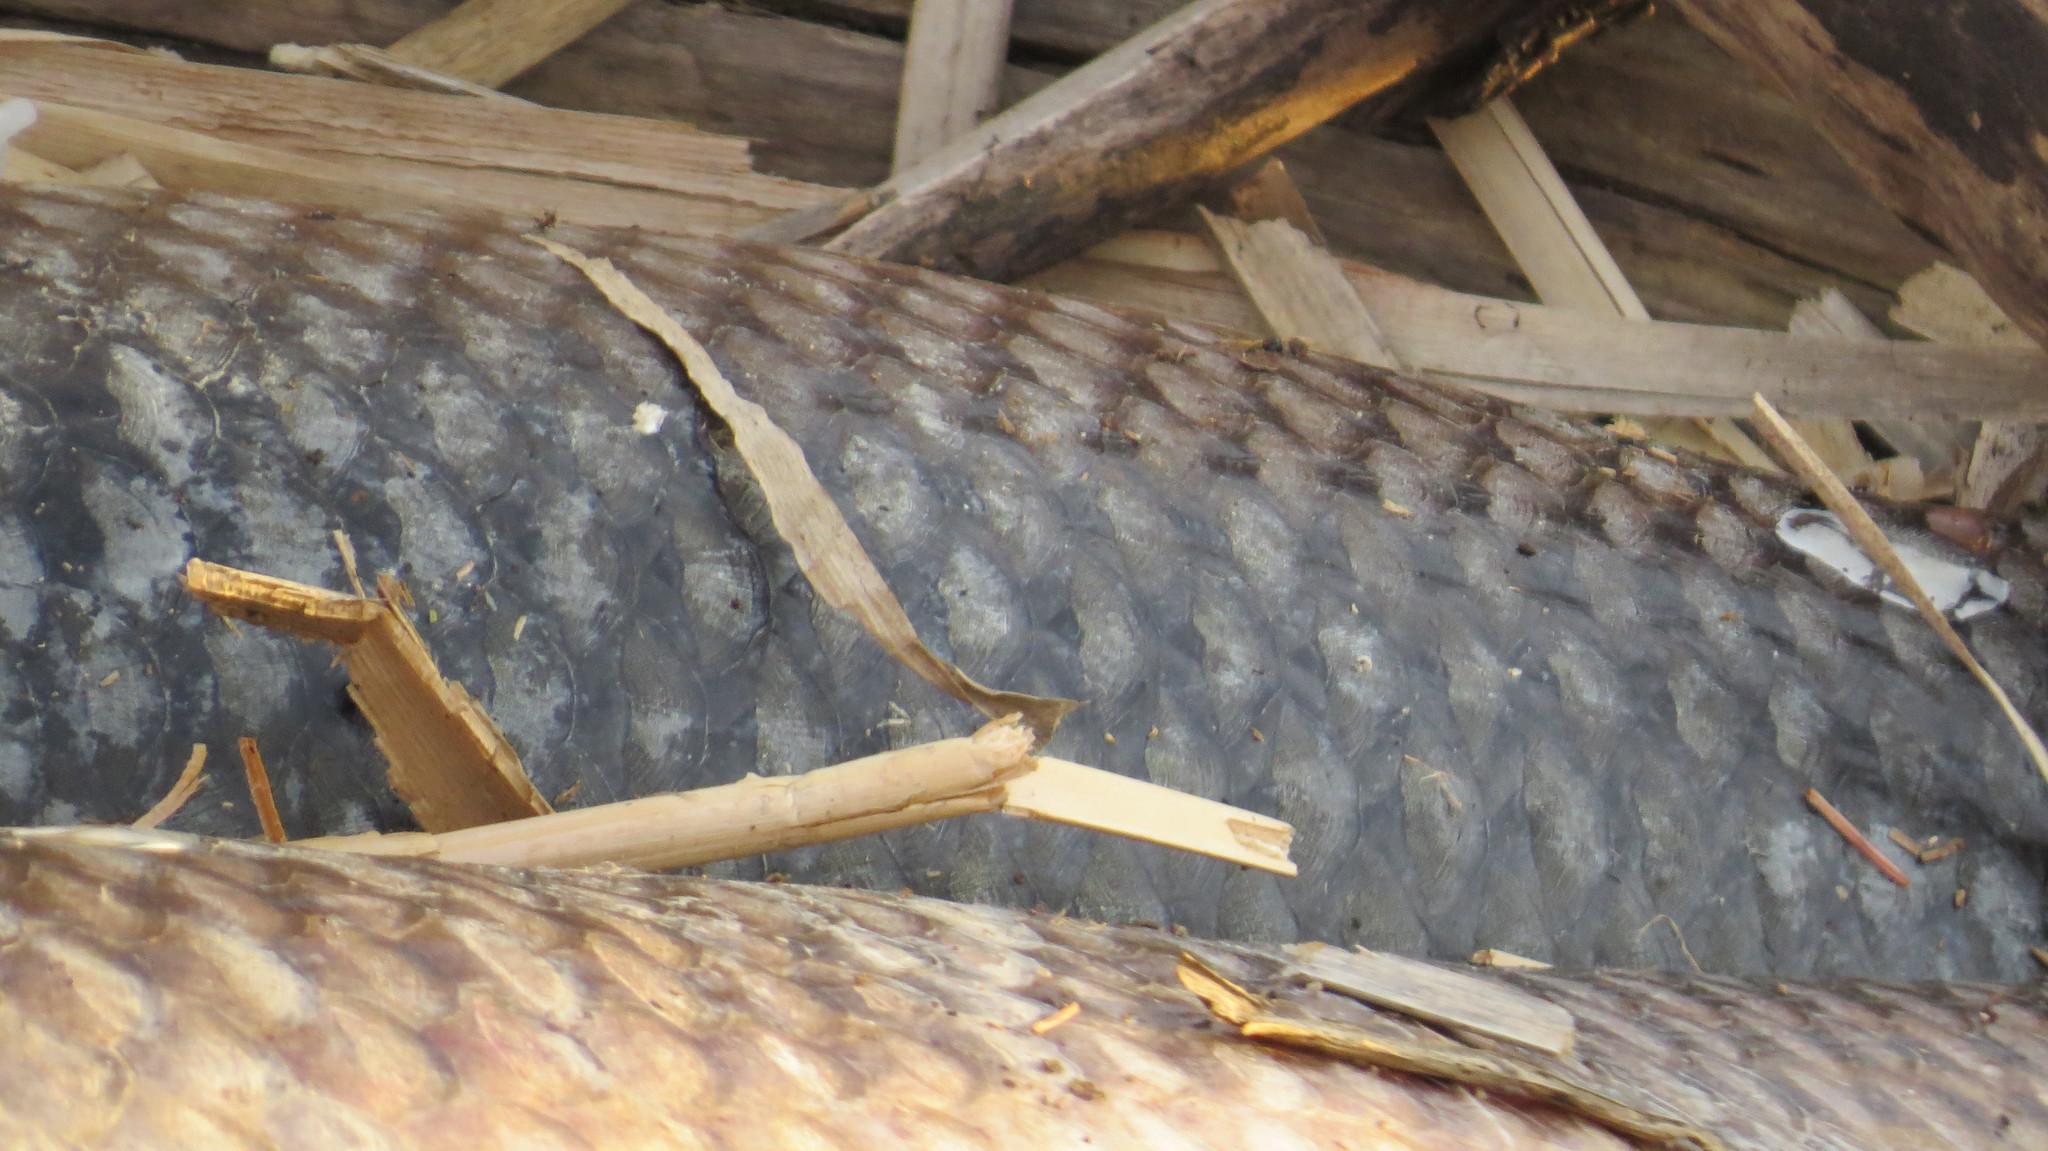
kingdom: Animalia
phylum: Chordata
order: Cypriniformes
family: Cyprinidae
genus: Cyprinus
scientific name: Cyprinus carpio
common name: Common carp
